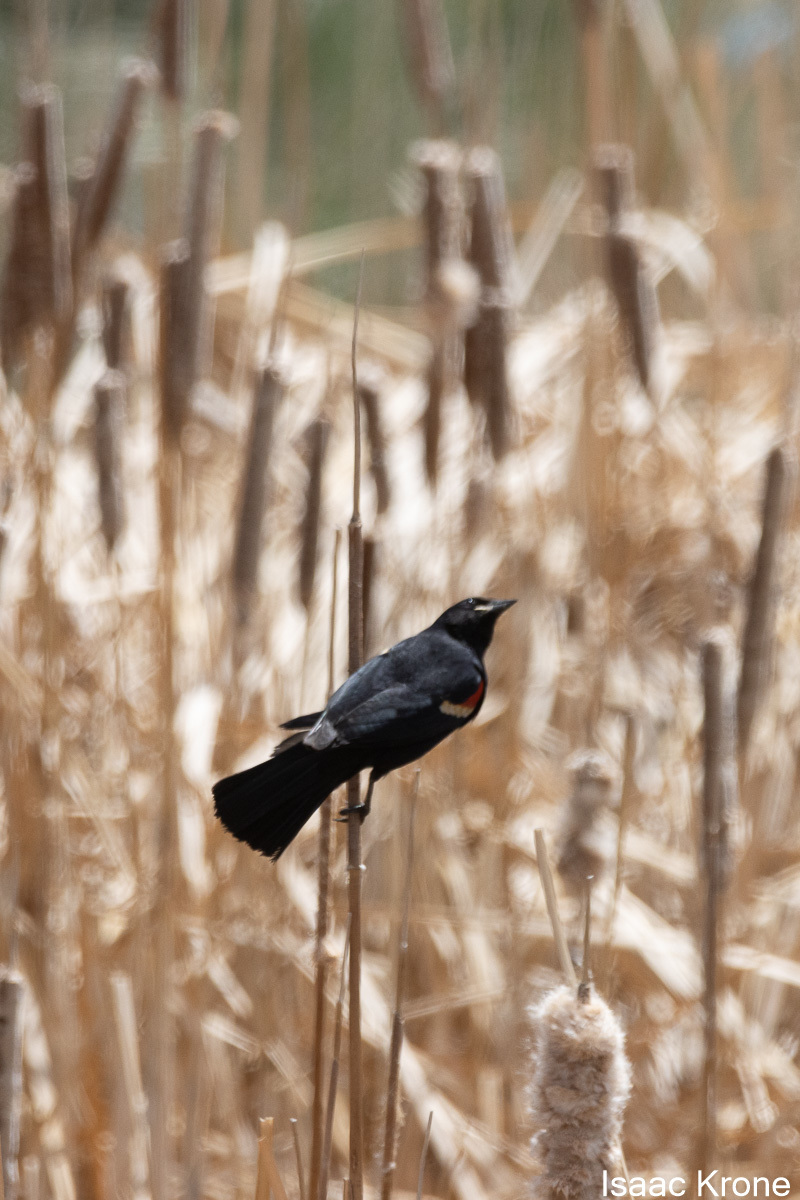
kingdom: Animalia
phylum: Chordata
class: Aves
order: Passeriformes
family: Icteridae
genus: Agelaius
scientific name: Agelaius phoeniceus
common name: Red-winged blackbird
